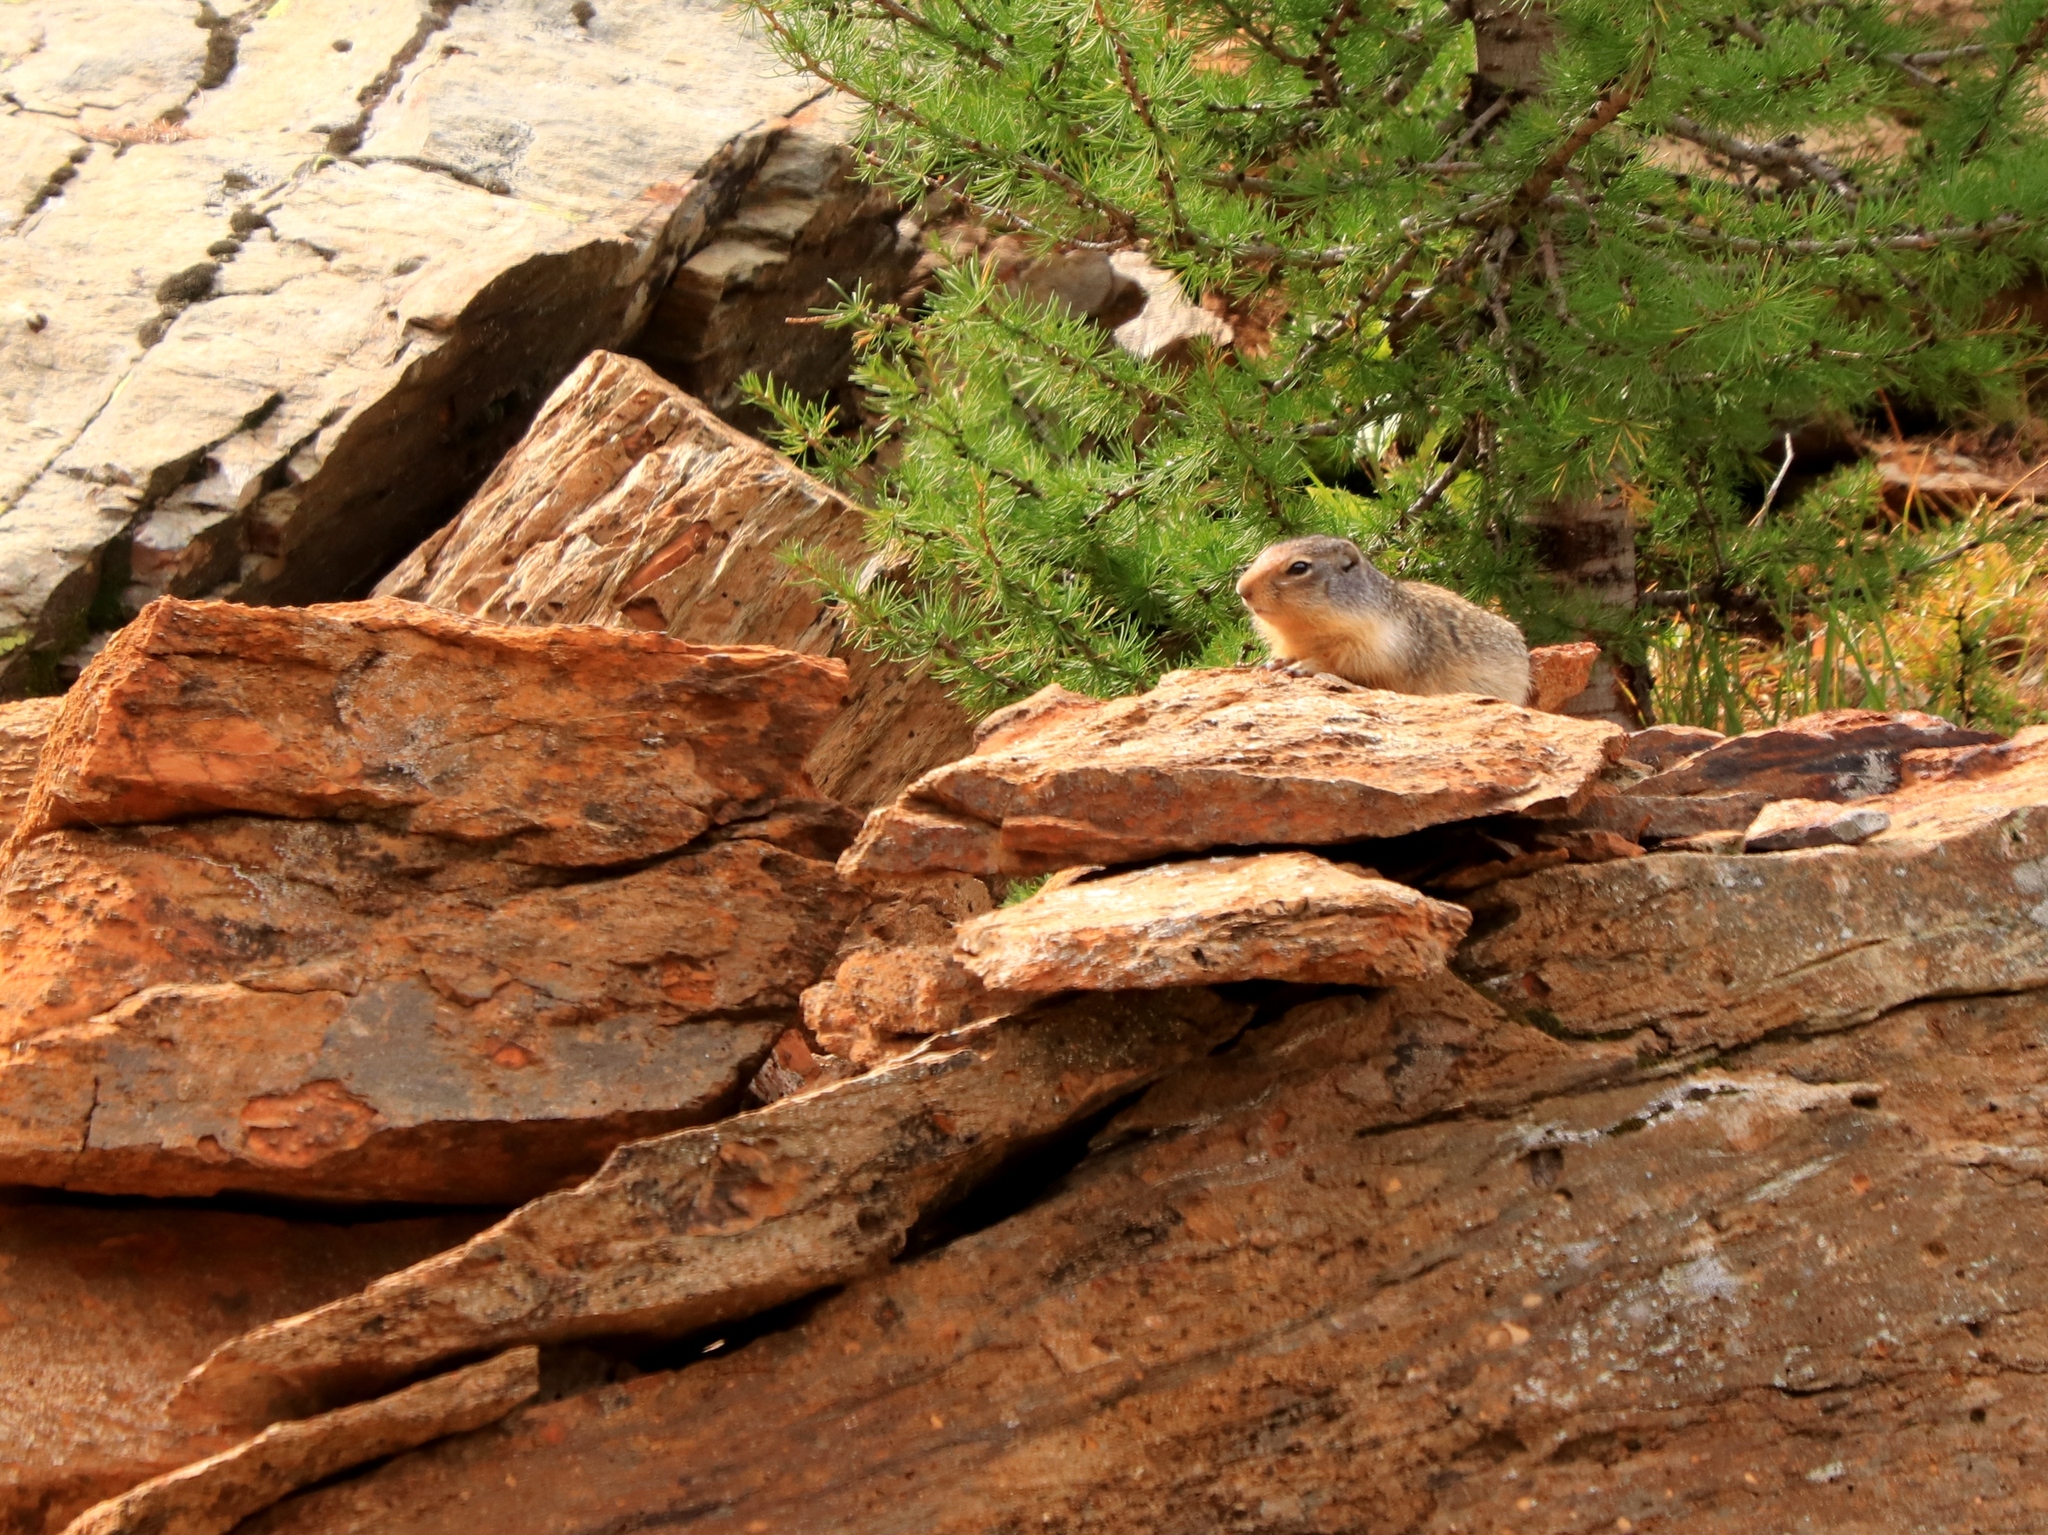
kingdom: Animalia
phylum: Chordata
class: Mammalia
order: Rodentia
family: Sciuridae
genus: Urocitellus
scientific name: Urocitellus columbianus
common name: Columbian ground squirrel
